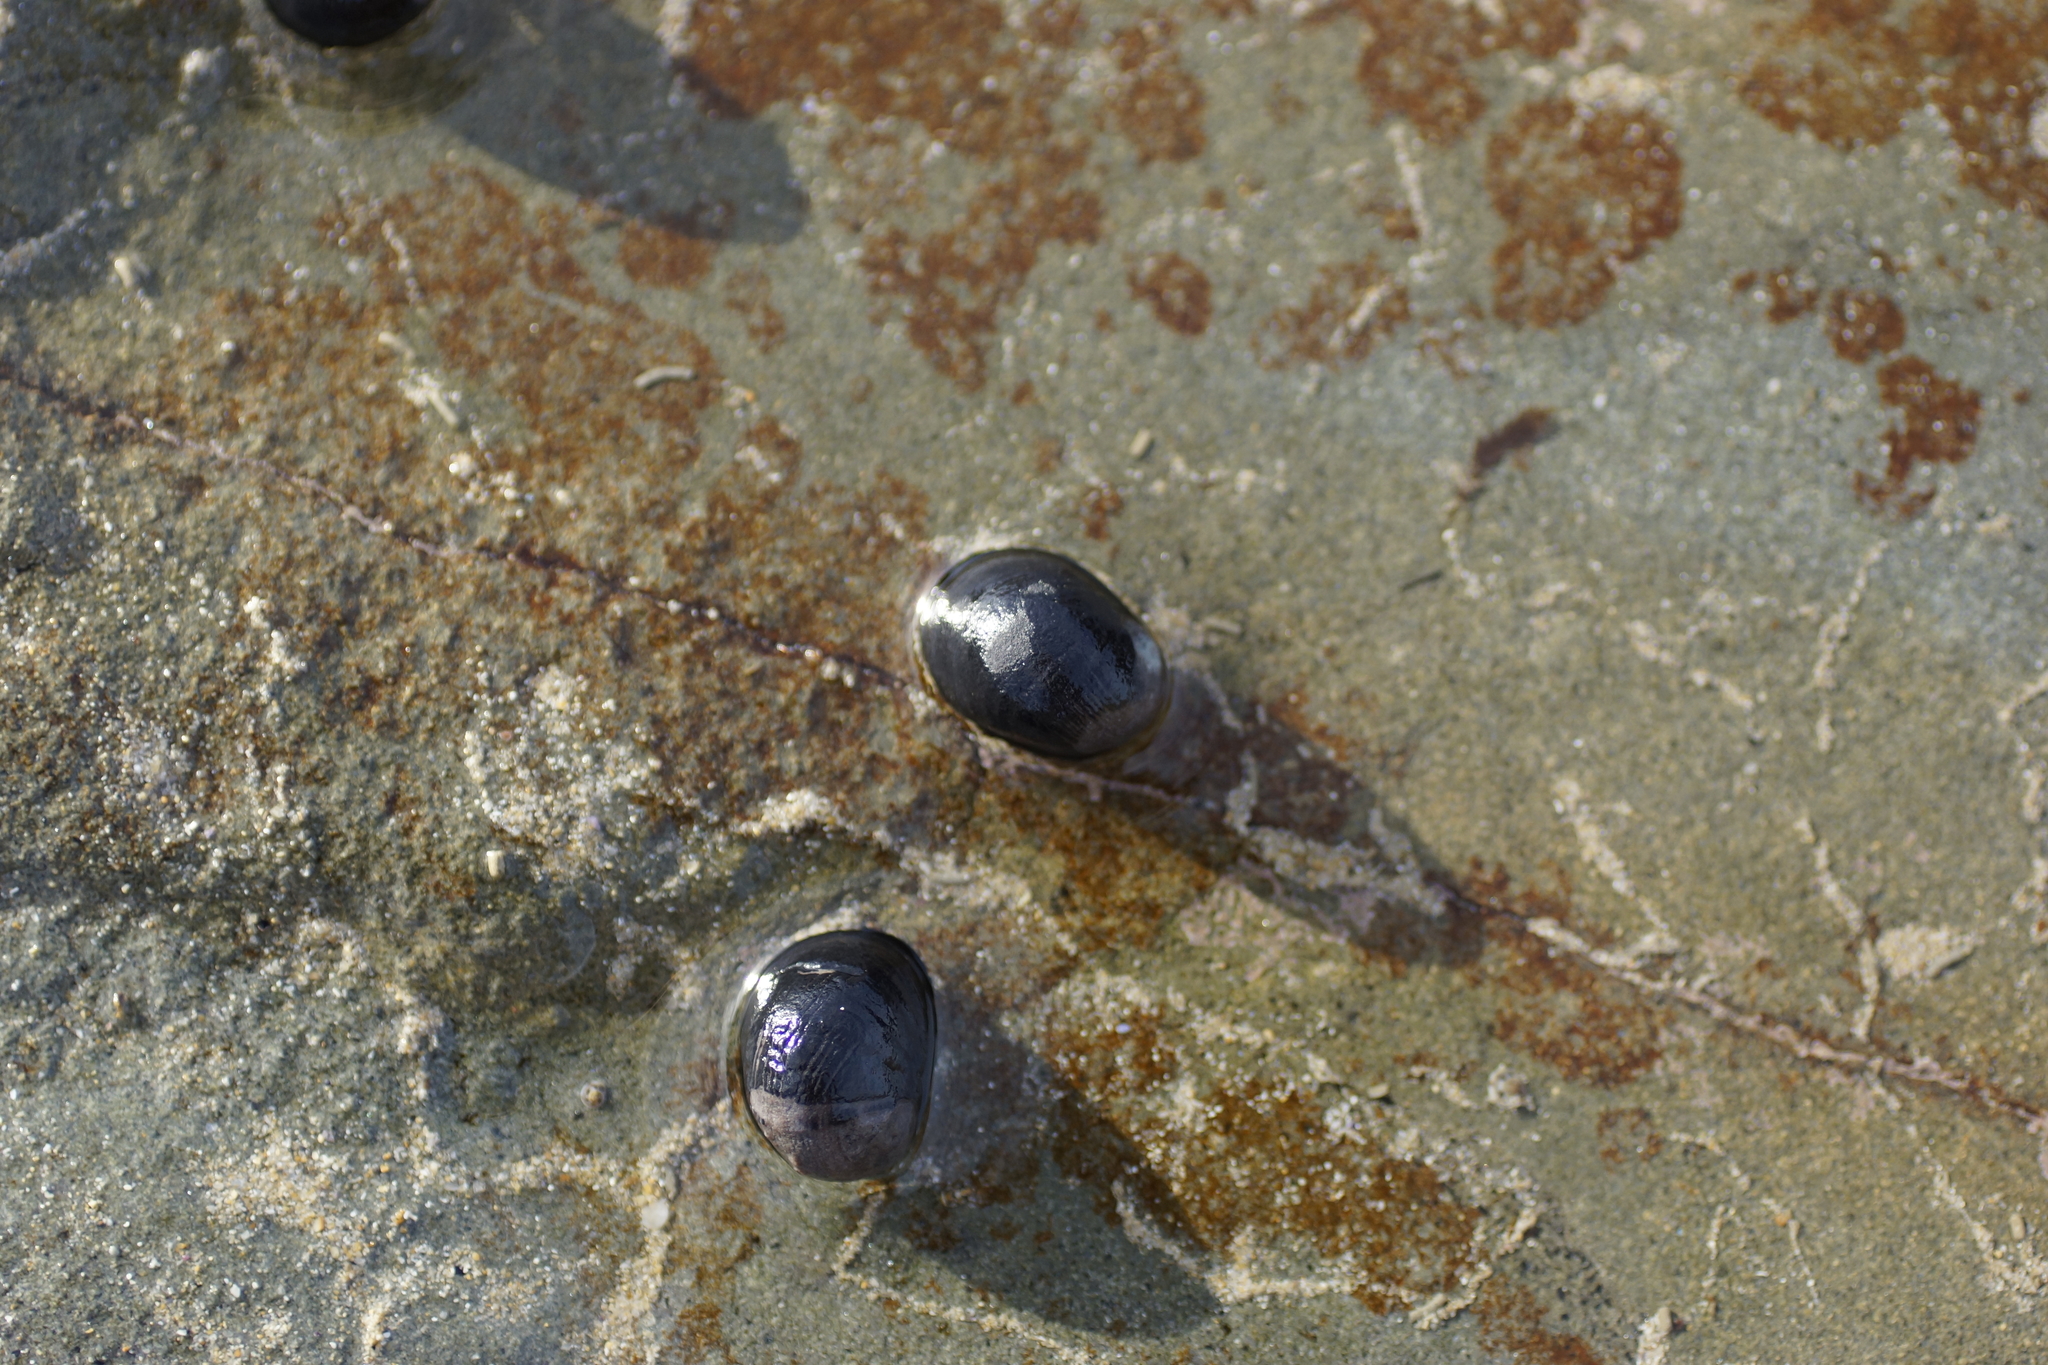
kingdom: Animalia
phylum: Mollusca
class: Gastropoda
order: Cycloneritida
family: Neritidae
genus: Nerita
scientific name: Nerita atramentosa
